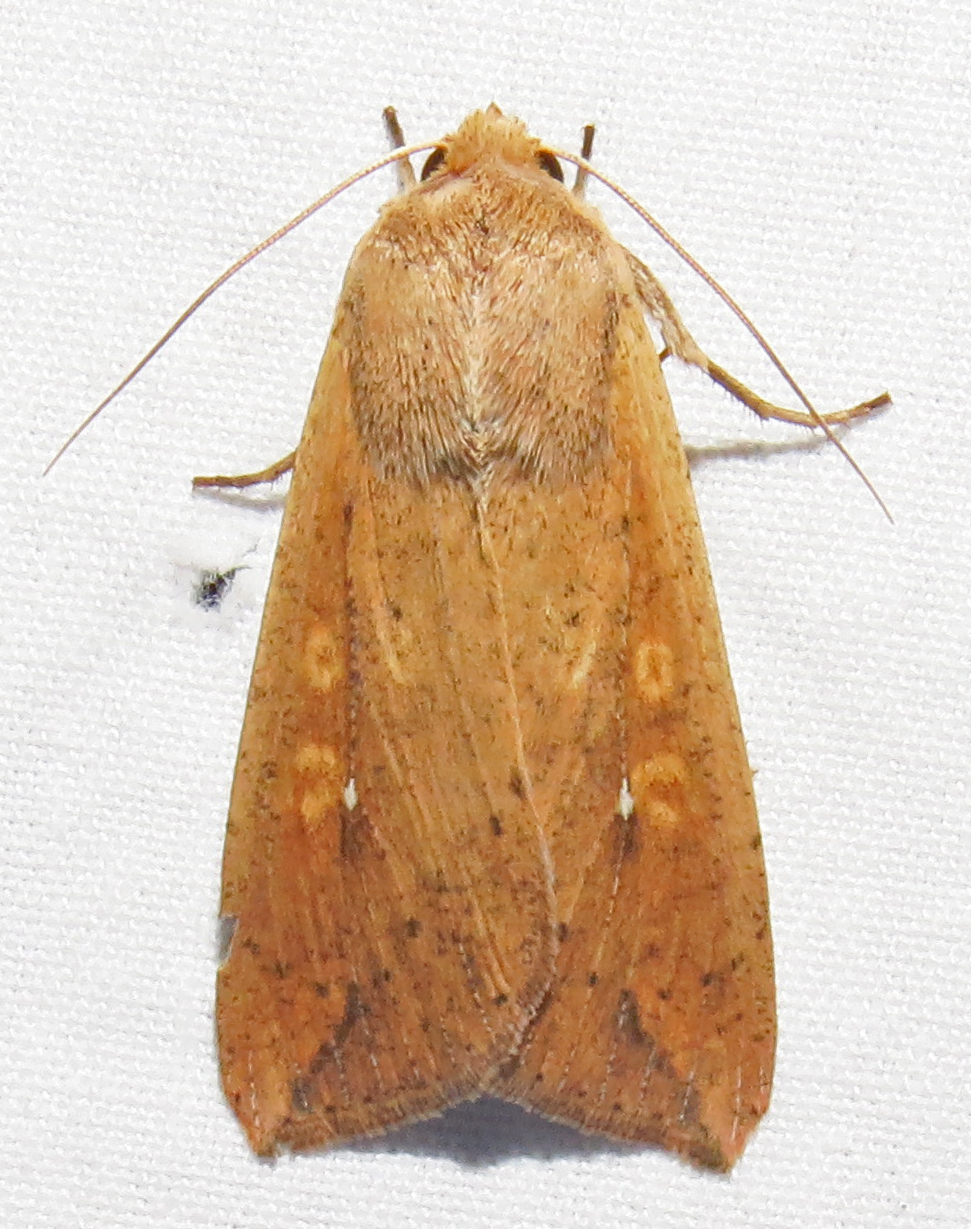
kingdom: Animalia
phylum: Arthropoda
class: Insecta
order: Lepidoptera
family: Noctuidae
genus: Mythimna
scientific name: Mythimna unipuncta
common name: White-speck
